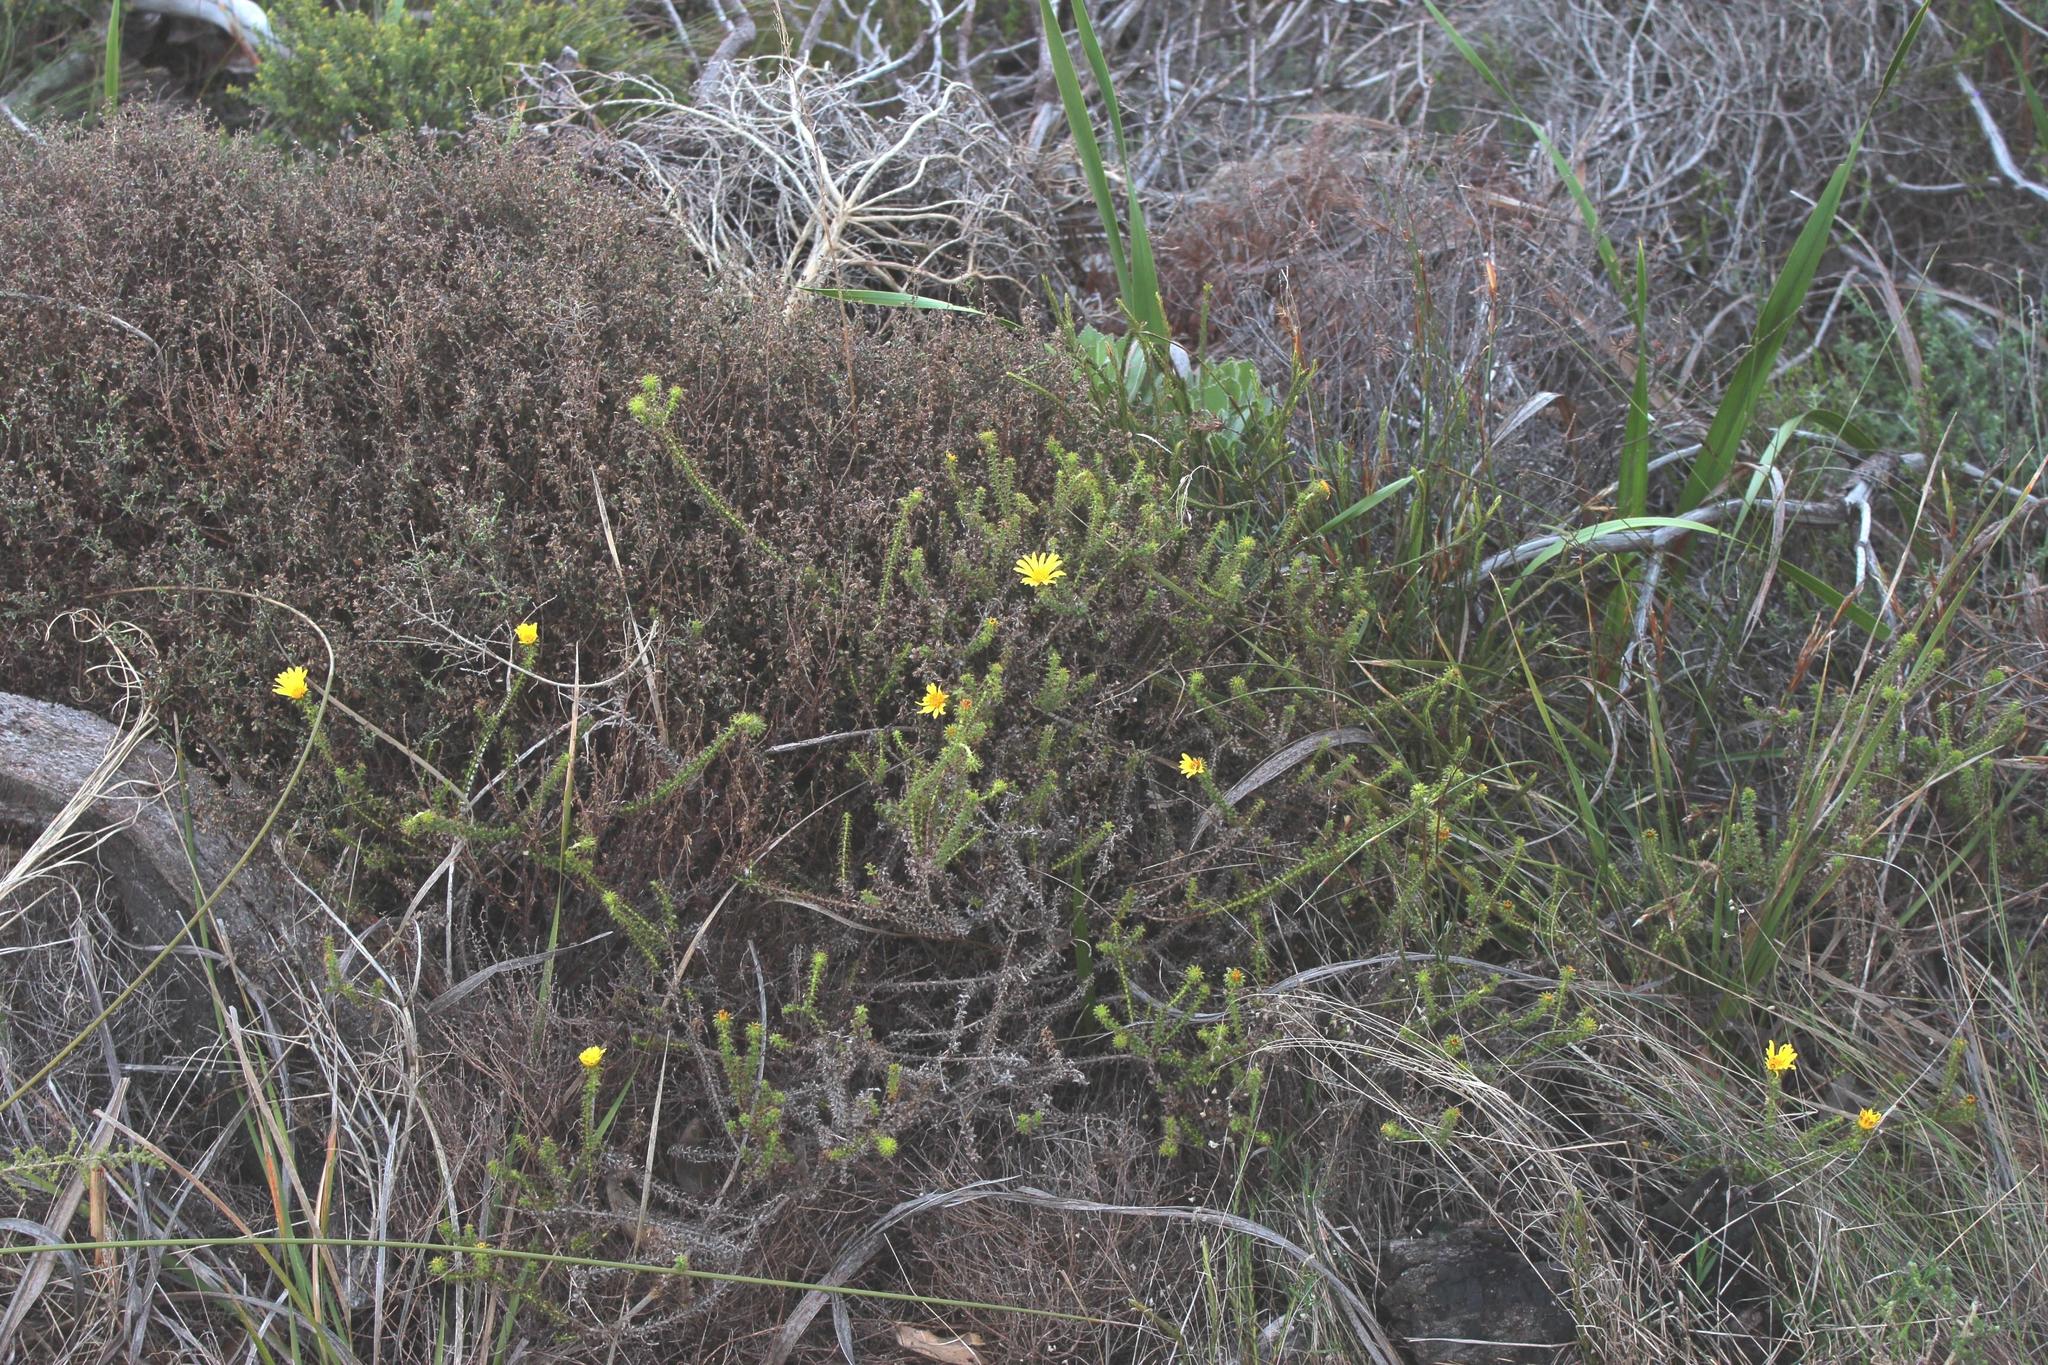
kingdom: Plantae
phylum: Tracheophyta
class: Magnoliopsida
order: Asterales
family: Asteraceae
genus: Cullumia
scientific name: Cullumia setosa
